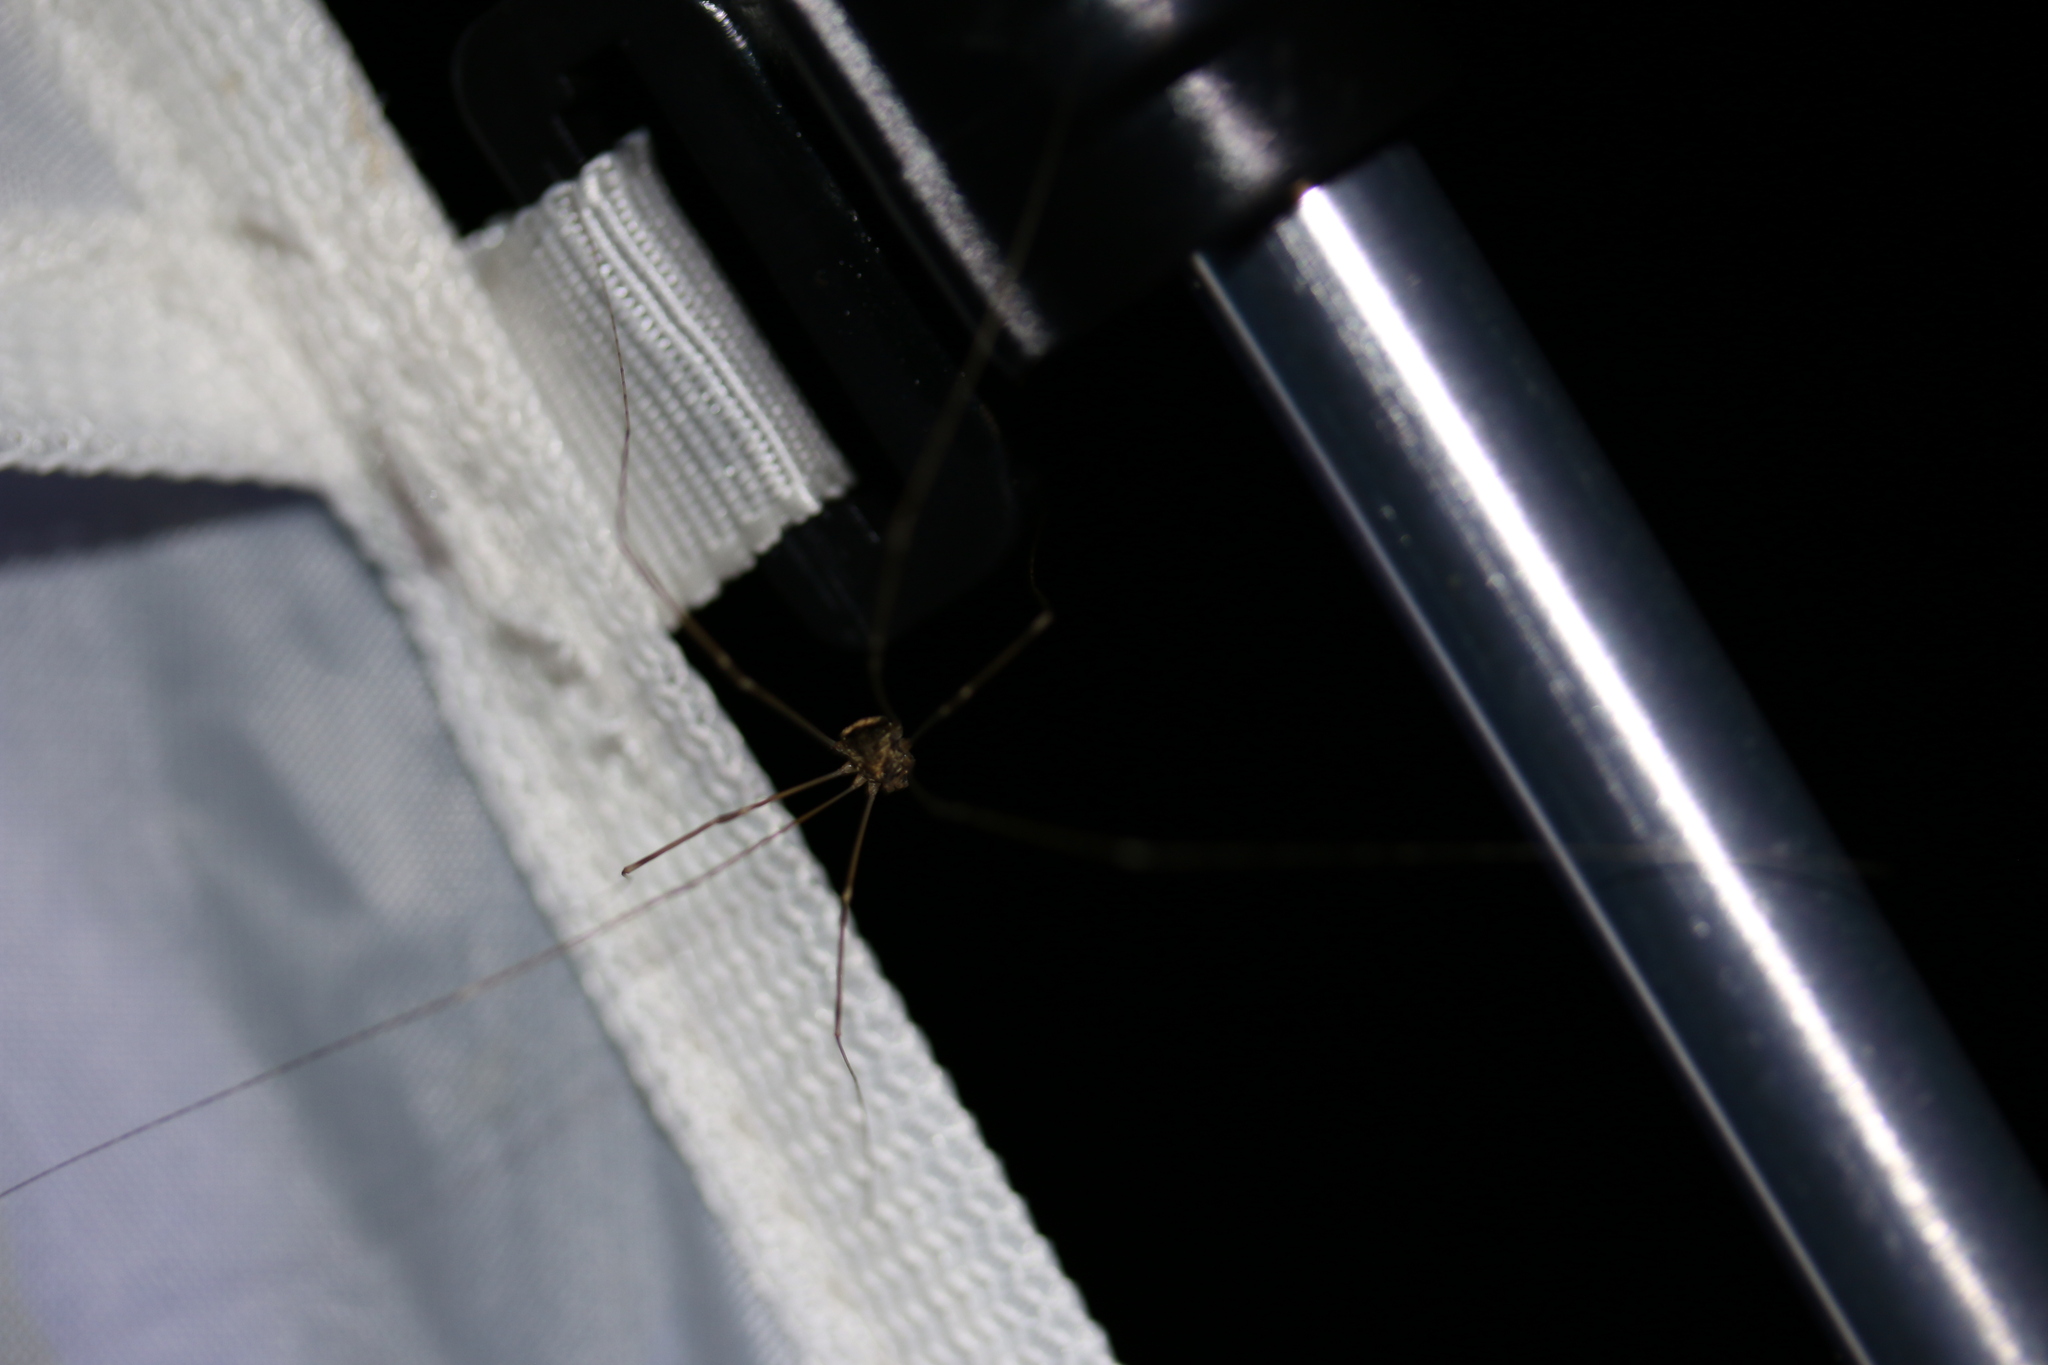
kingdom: Animalia
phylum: Arthropoda
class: Arachnida
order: Opiliones
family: Sclerosomatidae
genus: Leiobunum
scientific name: Leiobunum blackwalli
